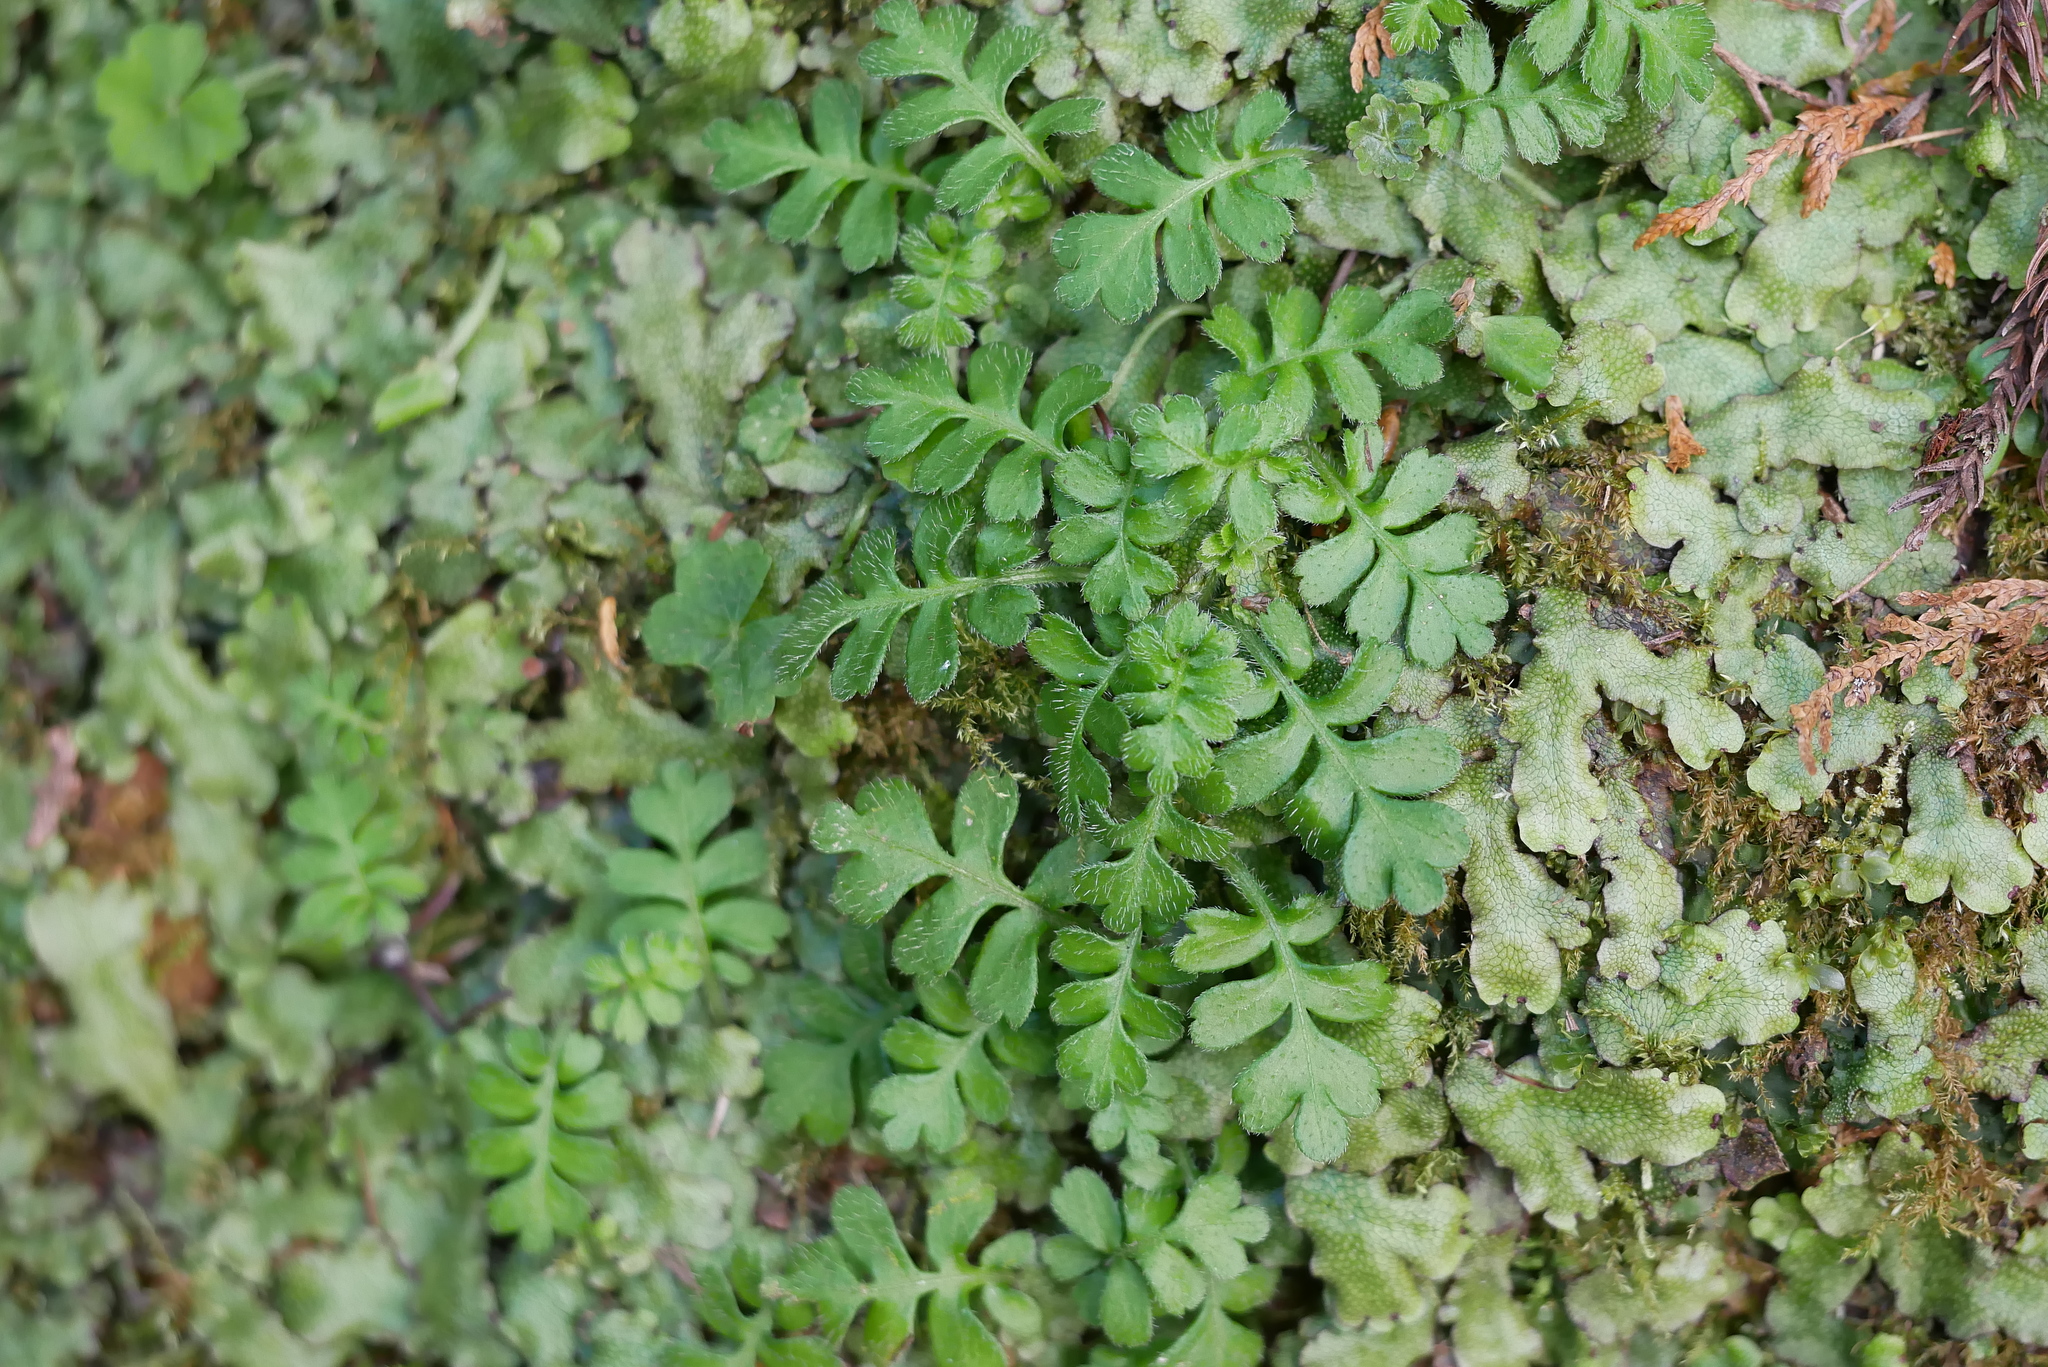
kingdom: Plantae
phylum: Tracheophyta
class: Magnoliopsida
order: Lamiales
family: Plantaginaceae
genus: Ellisiophyllum
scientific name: Ellisiophyllum pinnatum
